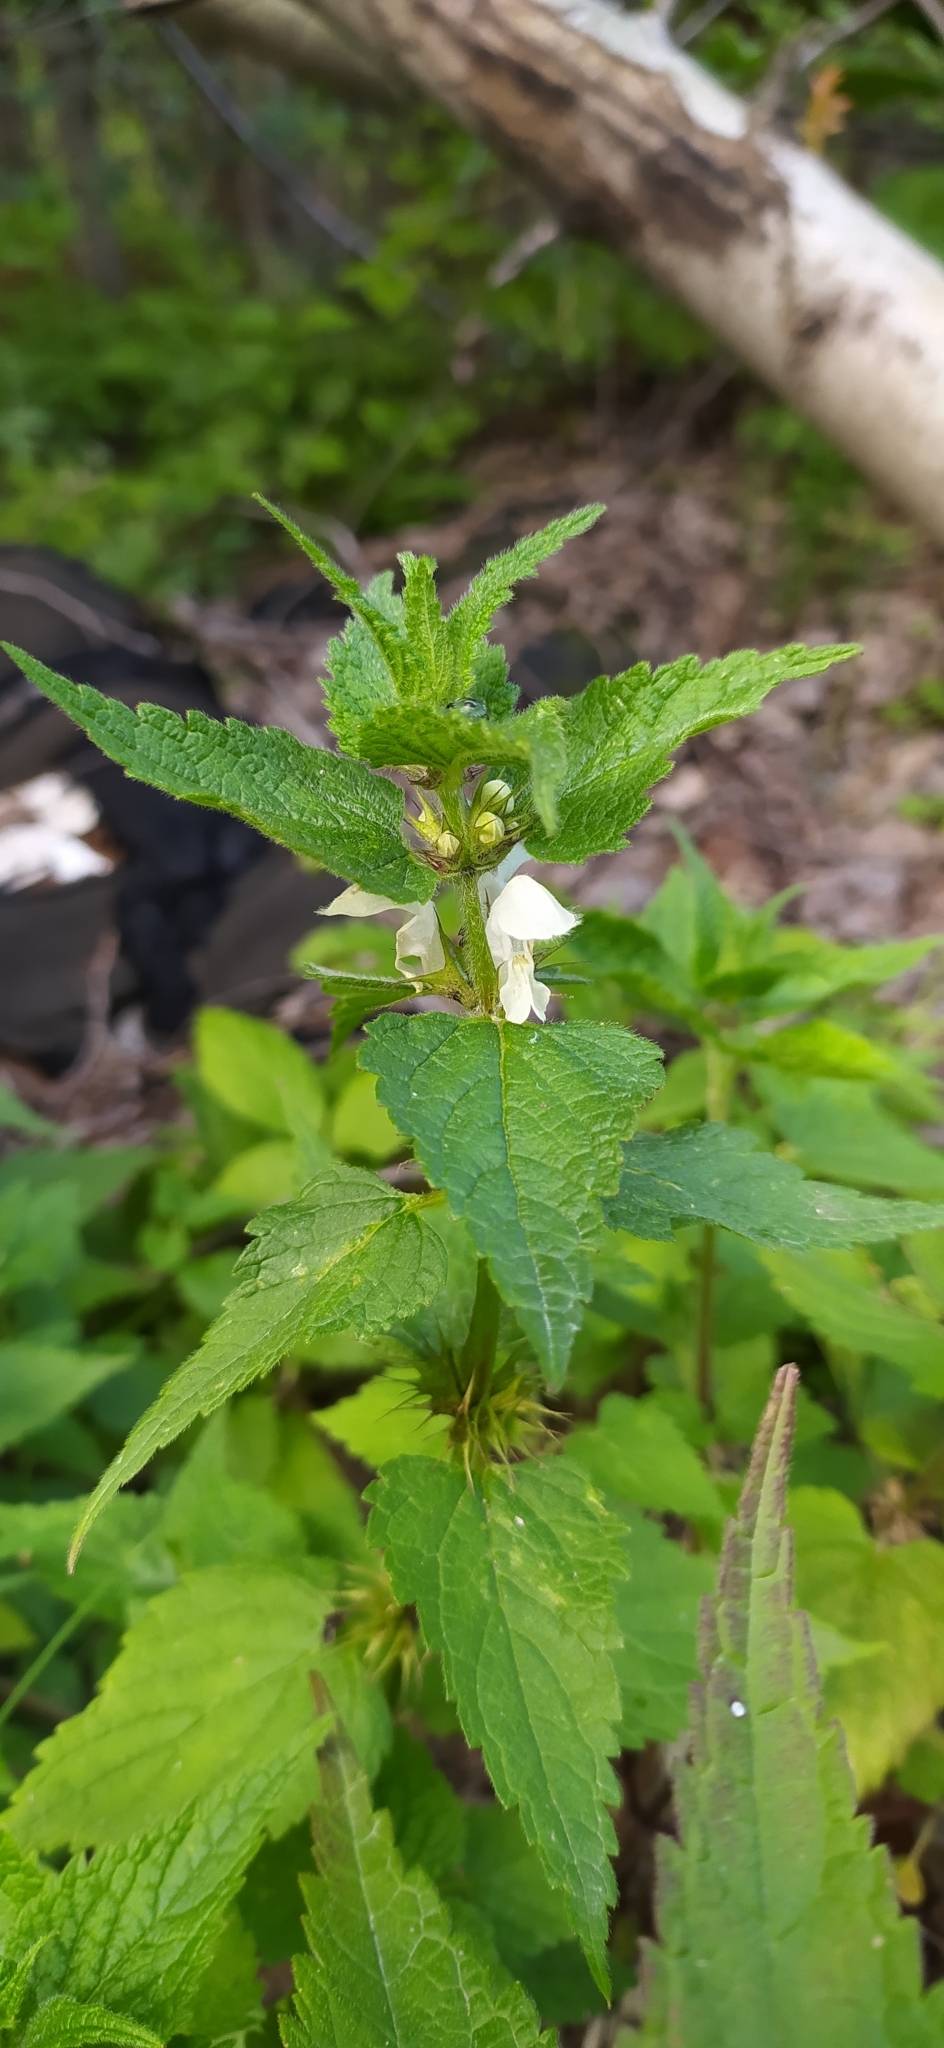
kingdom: Plantae
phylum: Tracheophyta
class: Magnoliopsida
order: Lamiales
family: Lamiaceae
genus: Lamium
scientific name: Lamium album
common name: White dead-nettle
